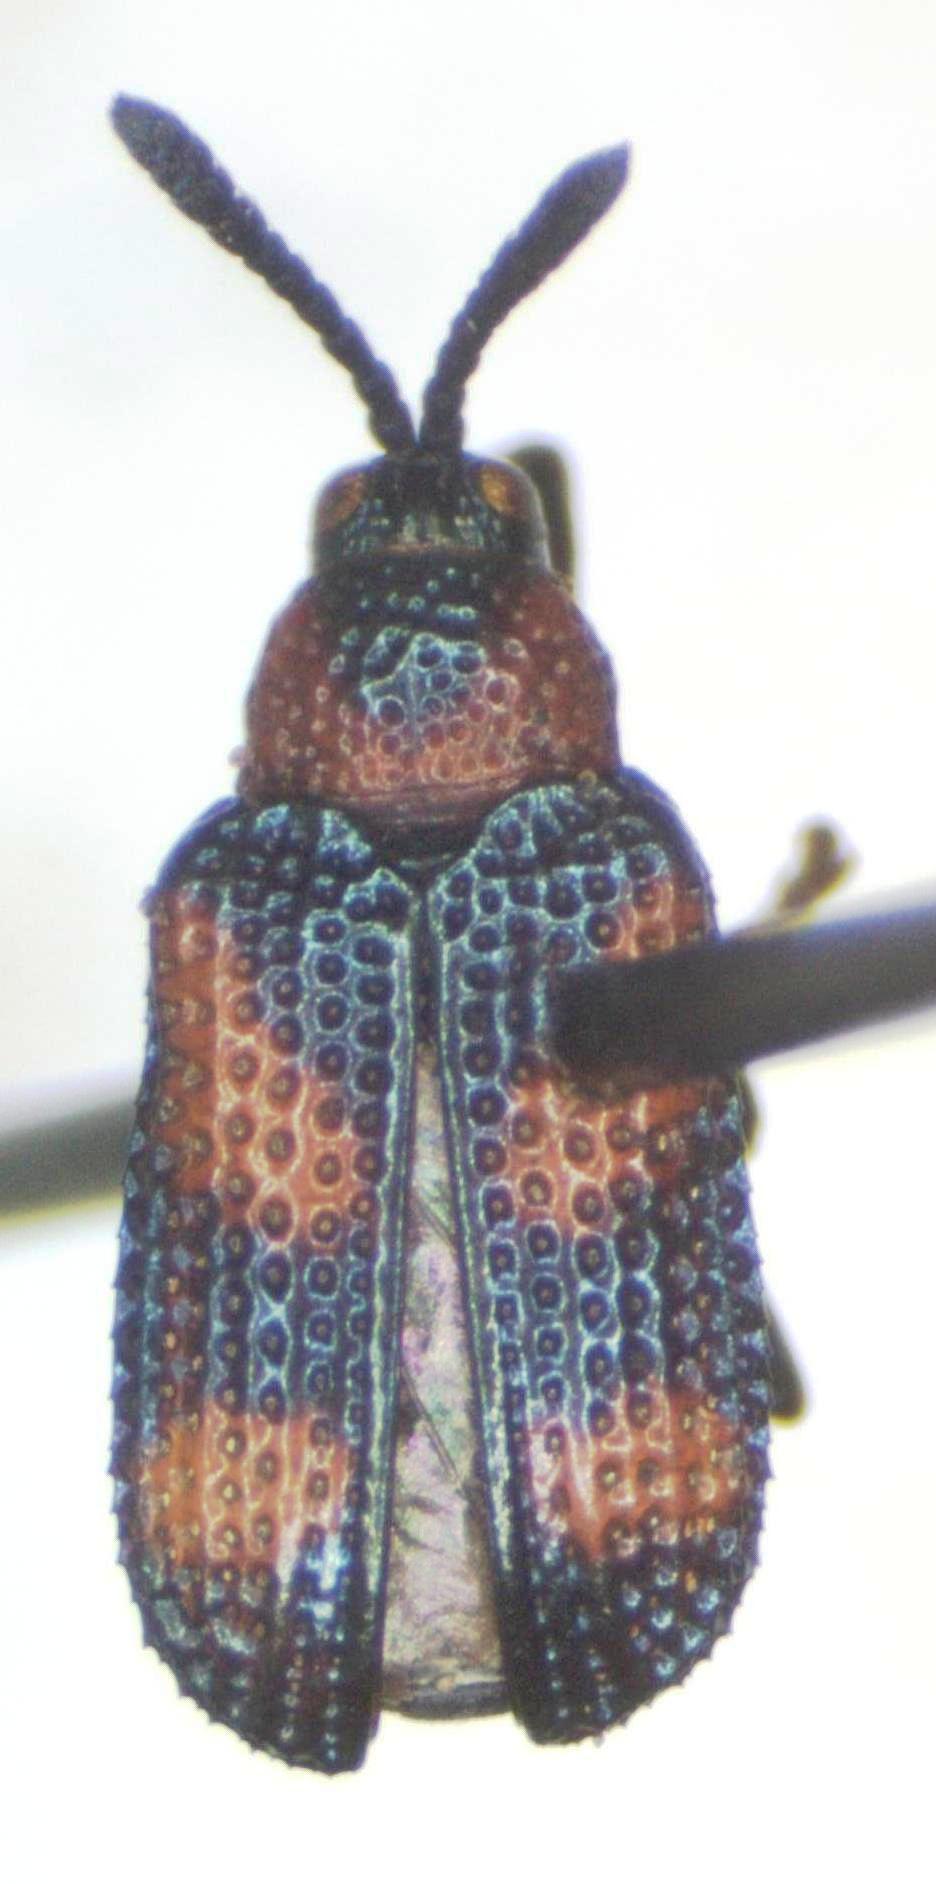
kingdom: Animalia
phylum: Arthropoda
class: Insecta
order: Coleoptera
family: Chrysomelidae
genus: Microrhopala
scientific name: Microrhopala perforata
